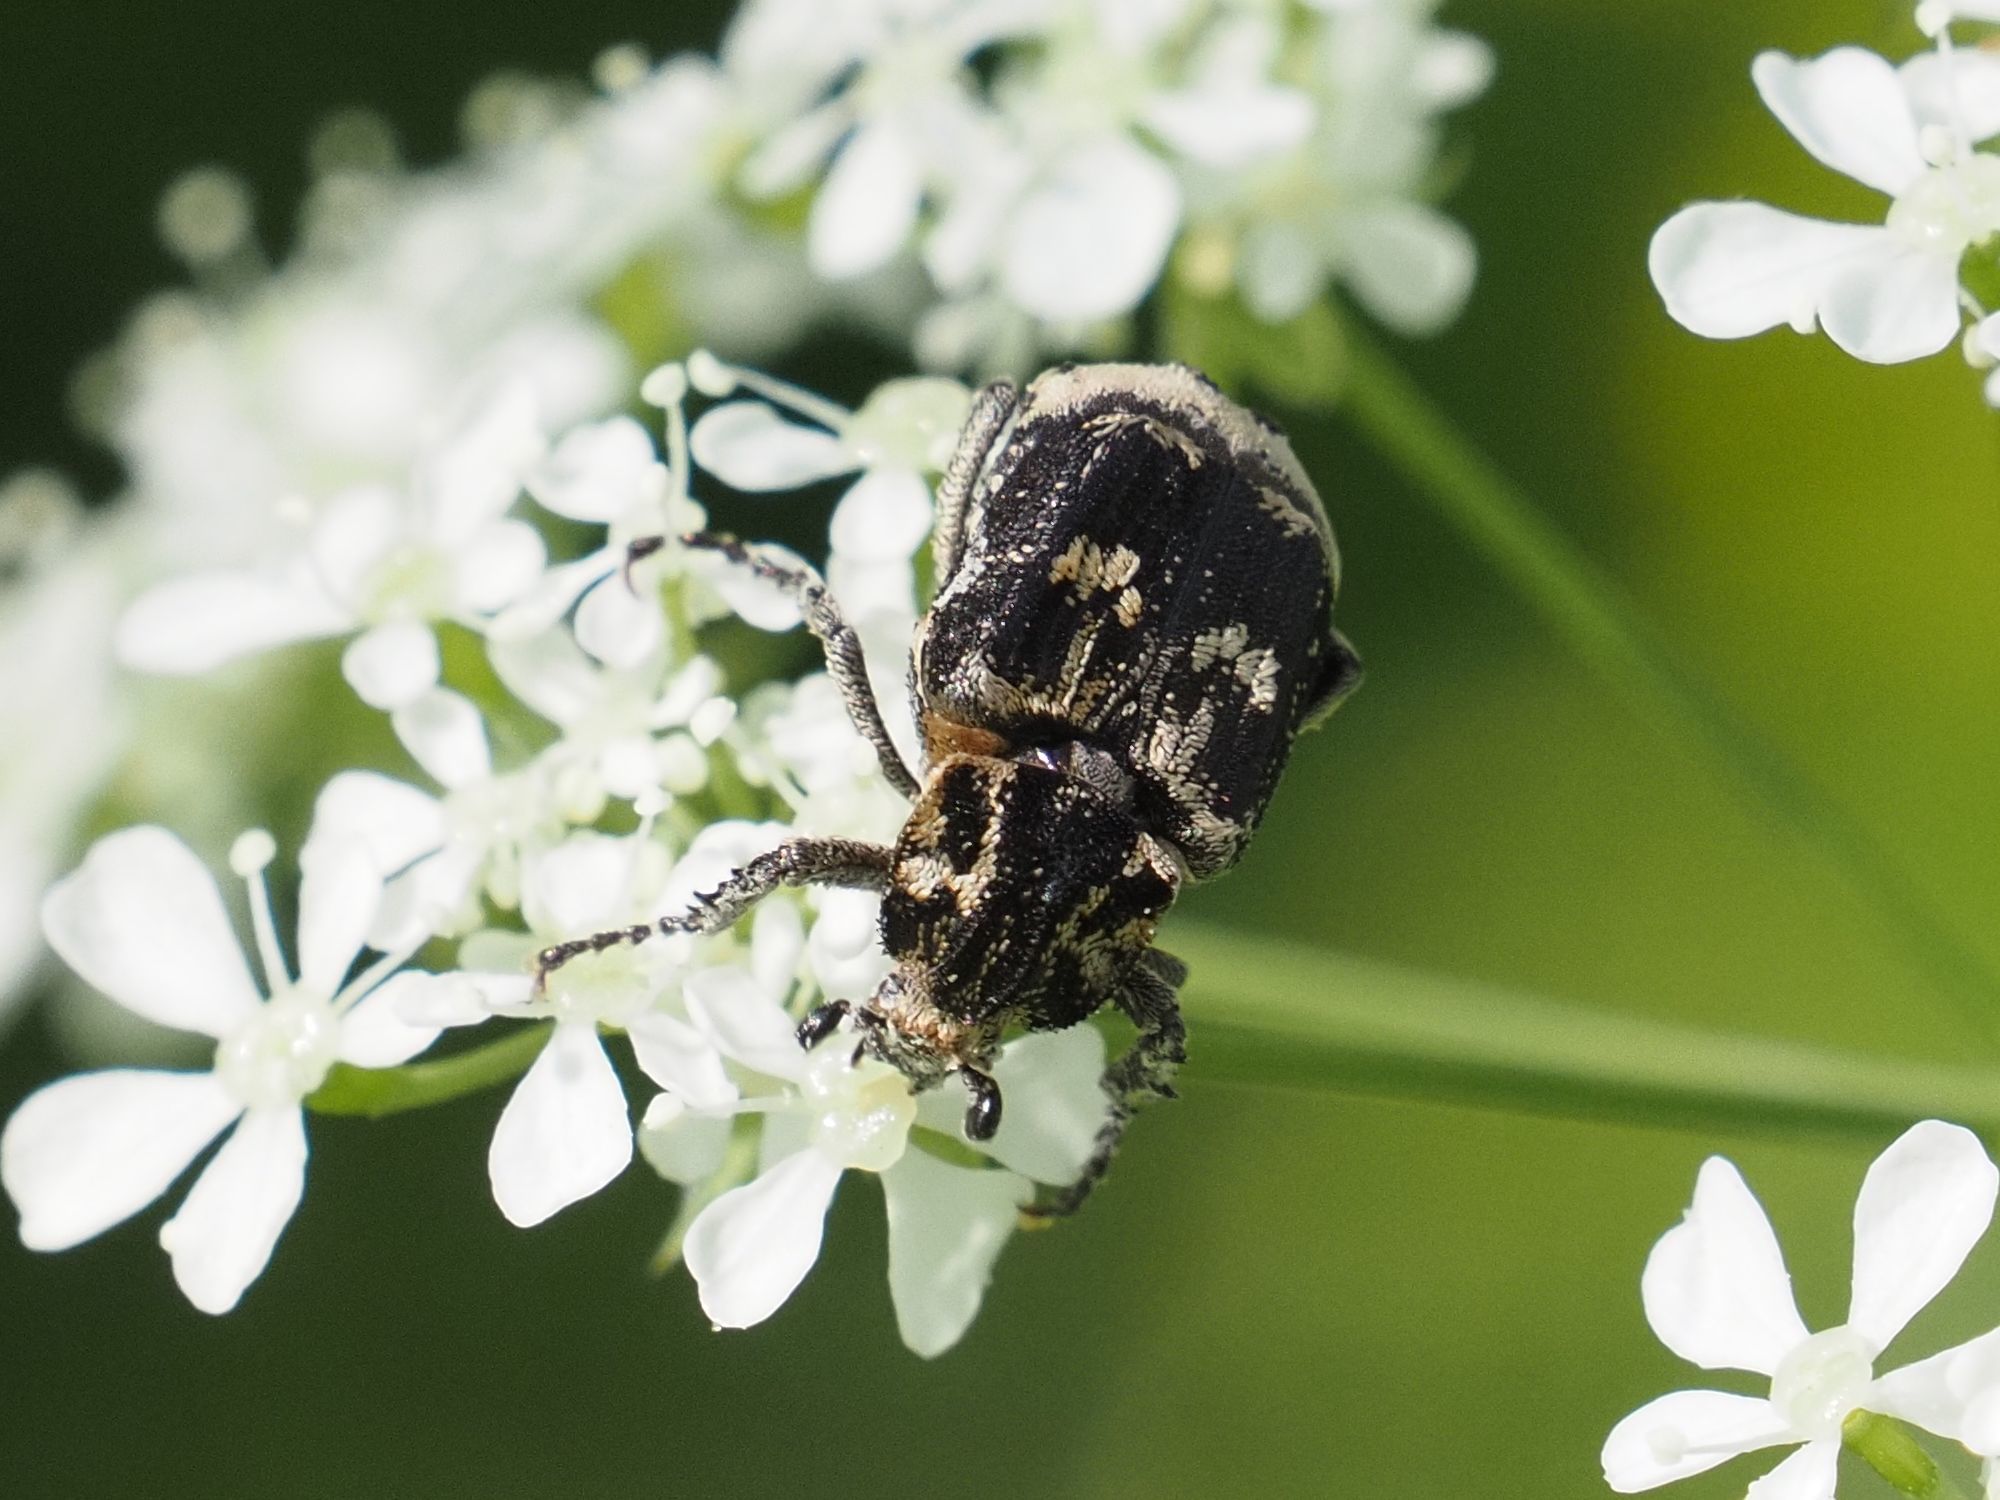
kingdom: Animalia
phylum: Arthropoda
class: Insecta
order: Coleoptera
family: Scarabaeidae
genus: Valgus
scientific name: Valgus hemipterus
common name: Bug flower chafer
